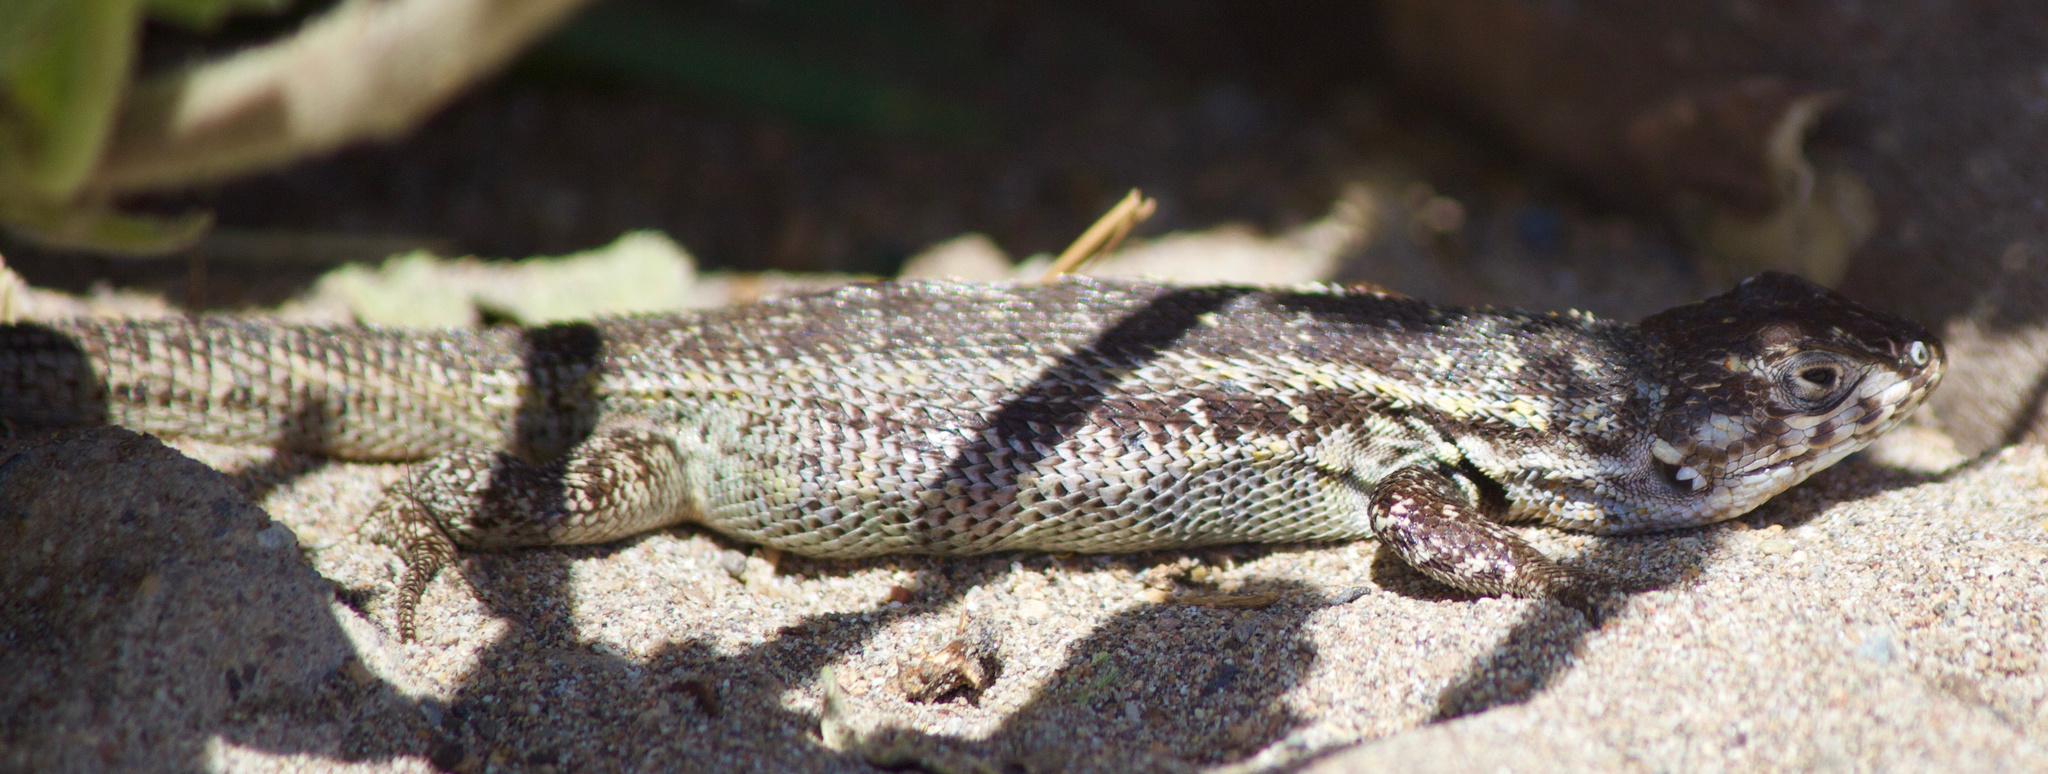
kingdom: Animalia
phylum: Chordata
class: Squamata
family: Liolaemidae
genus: Liolaemus
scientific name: Liolaemus zapallarensis
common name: Zapallaren tree iguana
